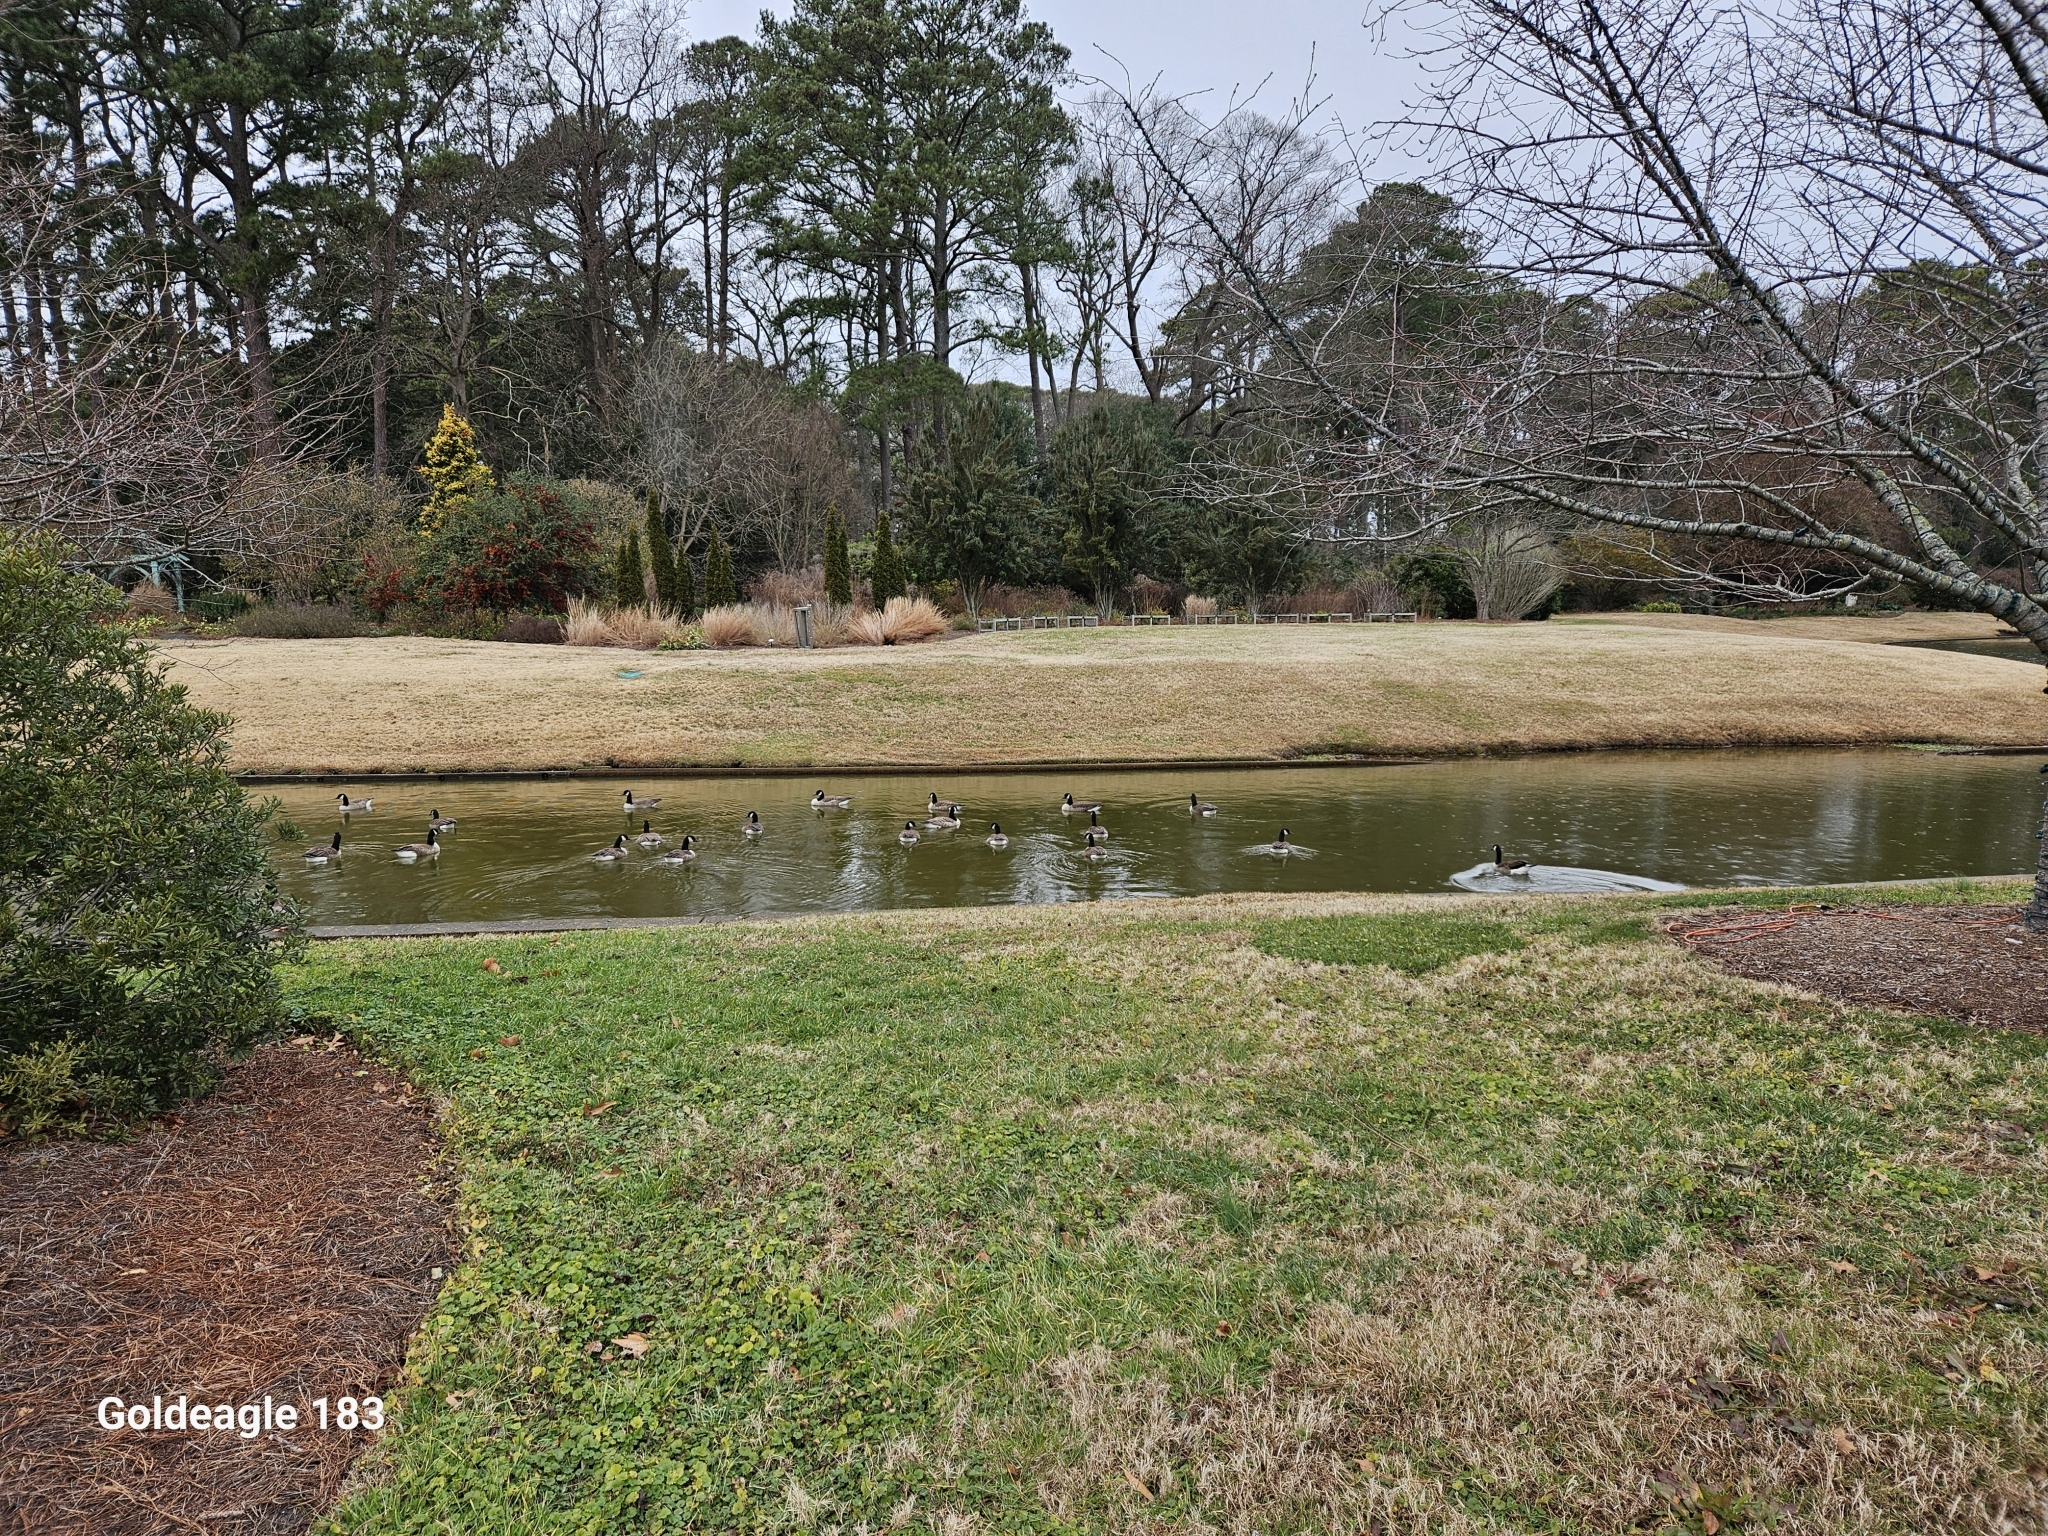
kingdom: Animalia
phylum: Chordata
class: Aves
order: Anseriformes
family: Anatidae
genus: Branta
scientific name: Branta canadensis
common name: Canada goose
